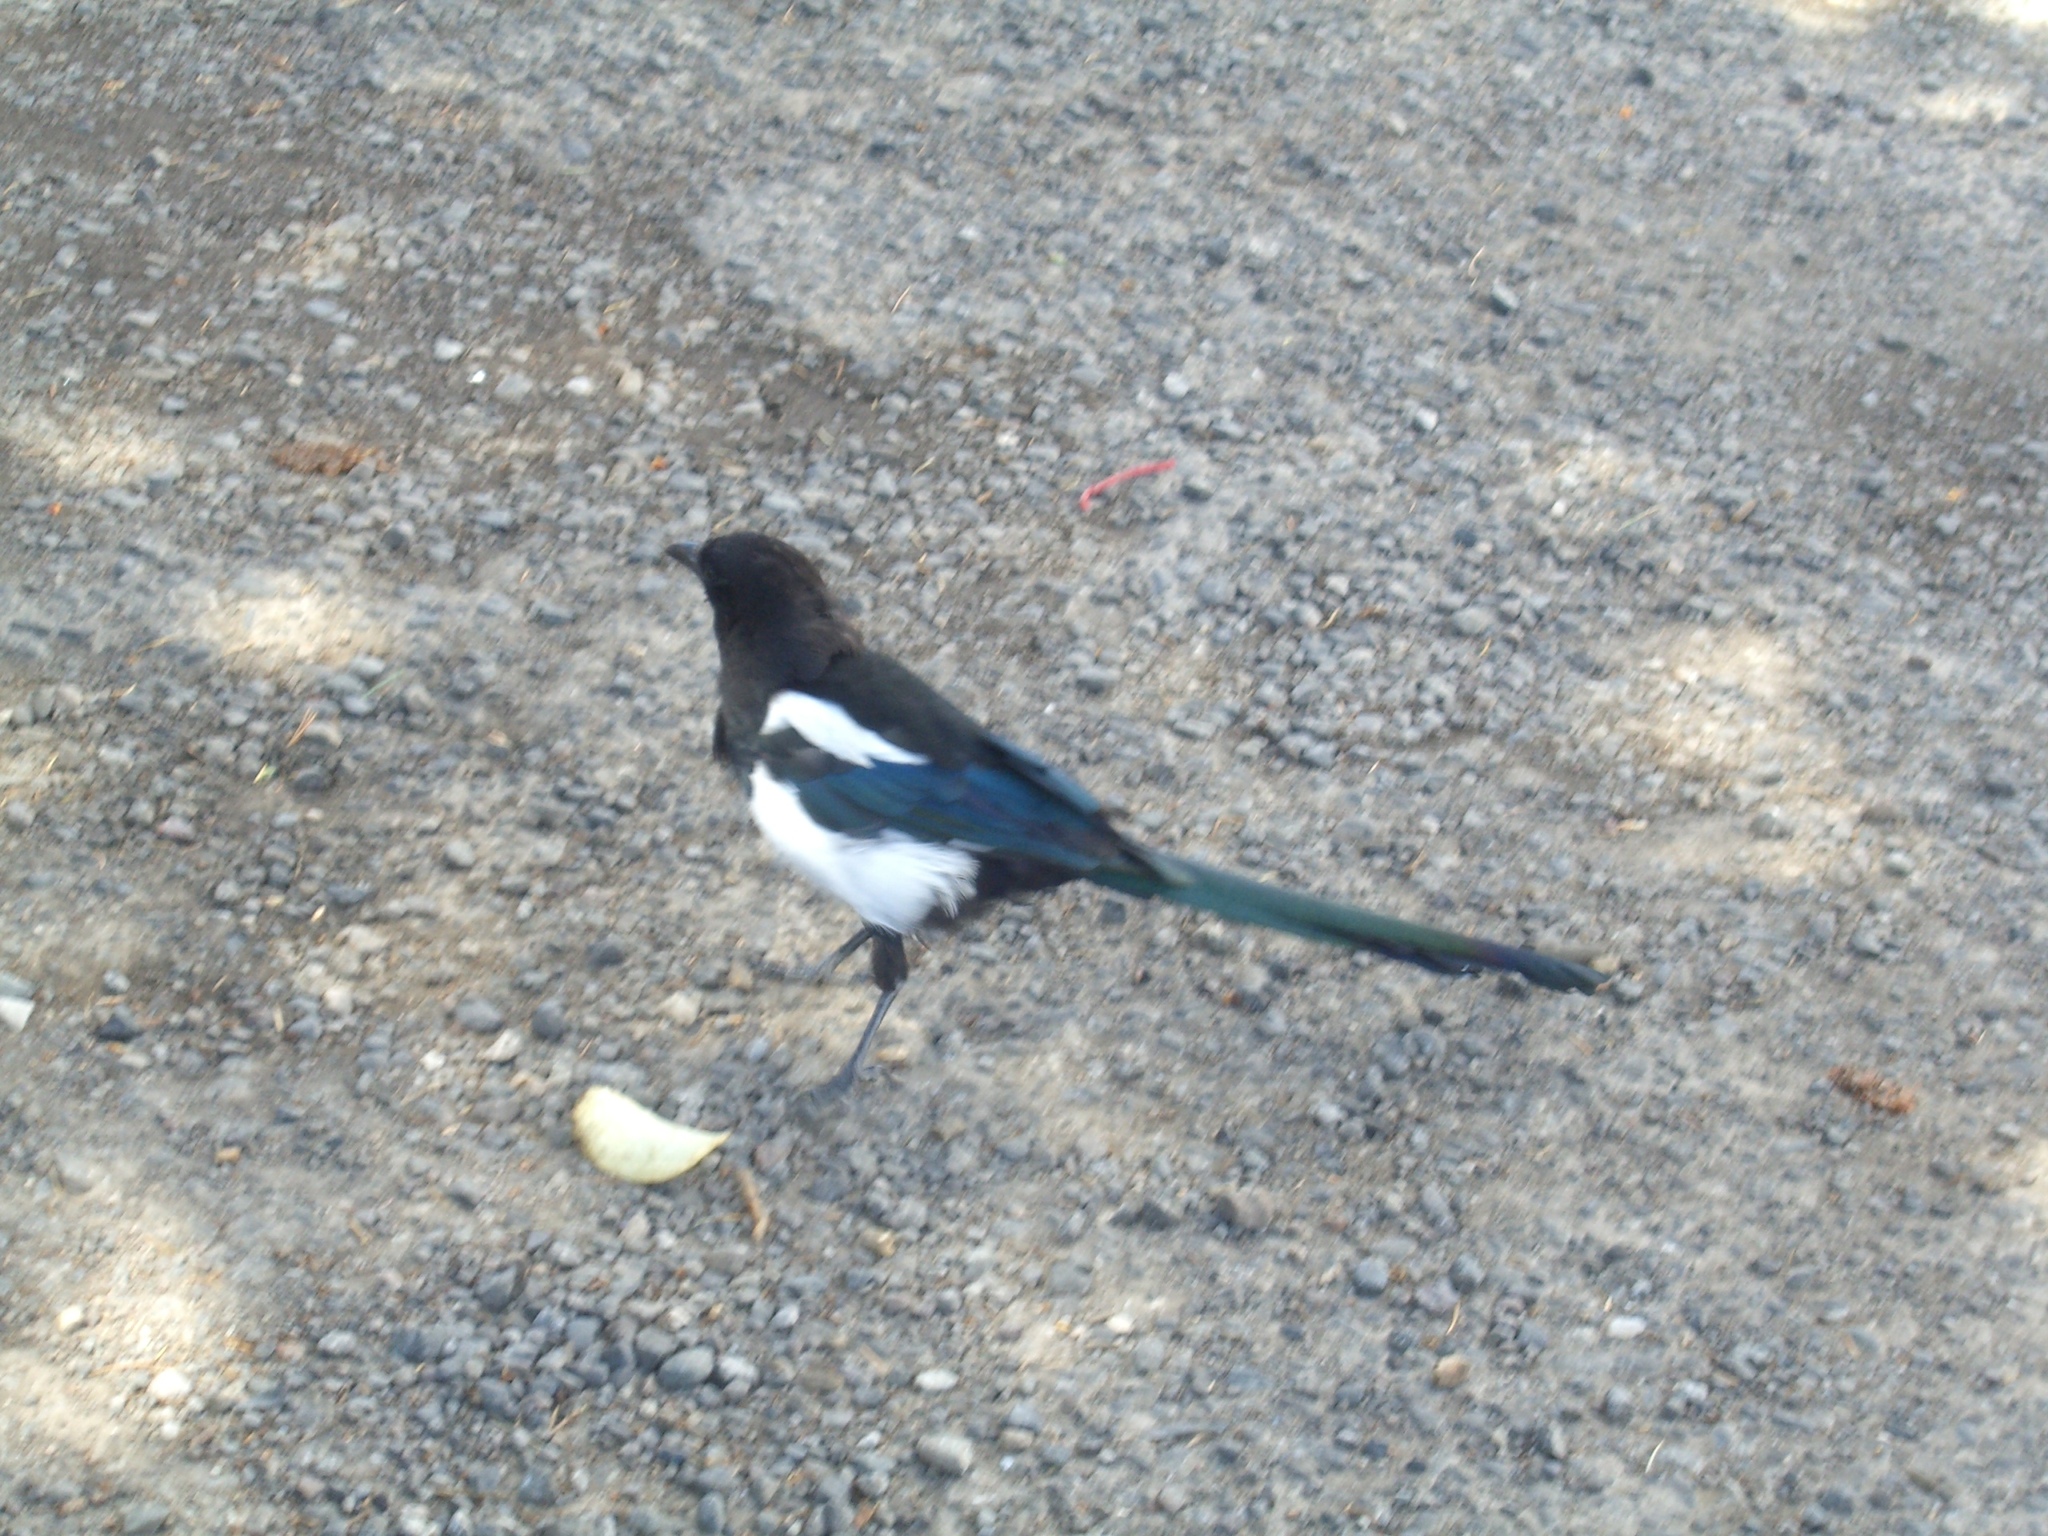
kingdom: Animalia
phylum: Chordata
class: Aves
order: Passeriformes
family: Corvidae
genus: Pica
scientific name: Pica hudsonia
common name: Black-billed magpie
